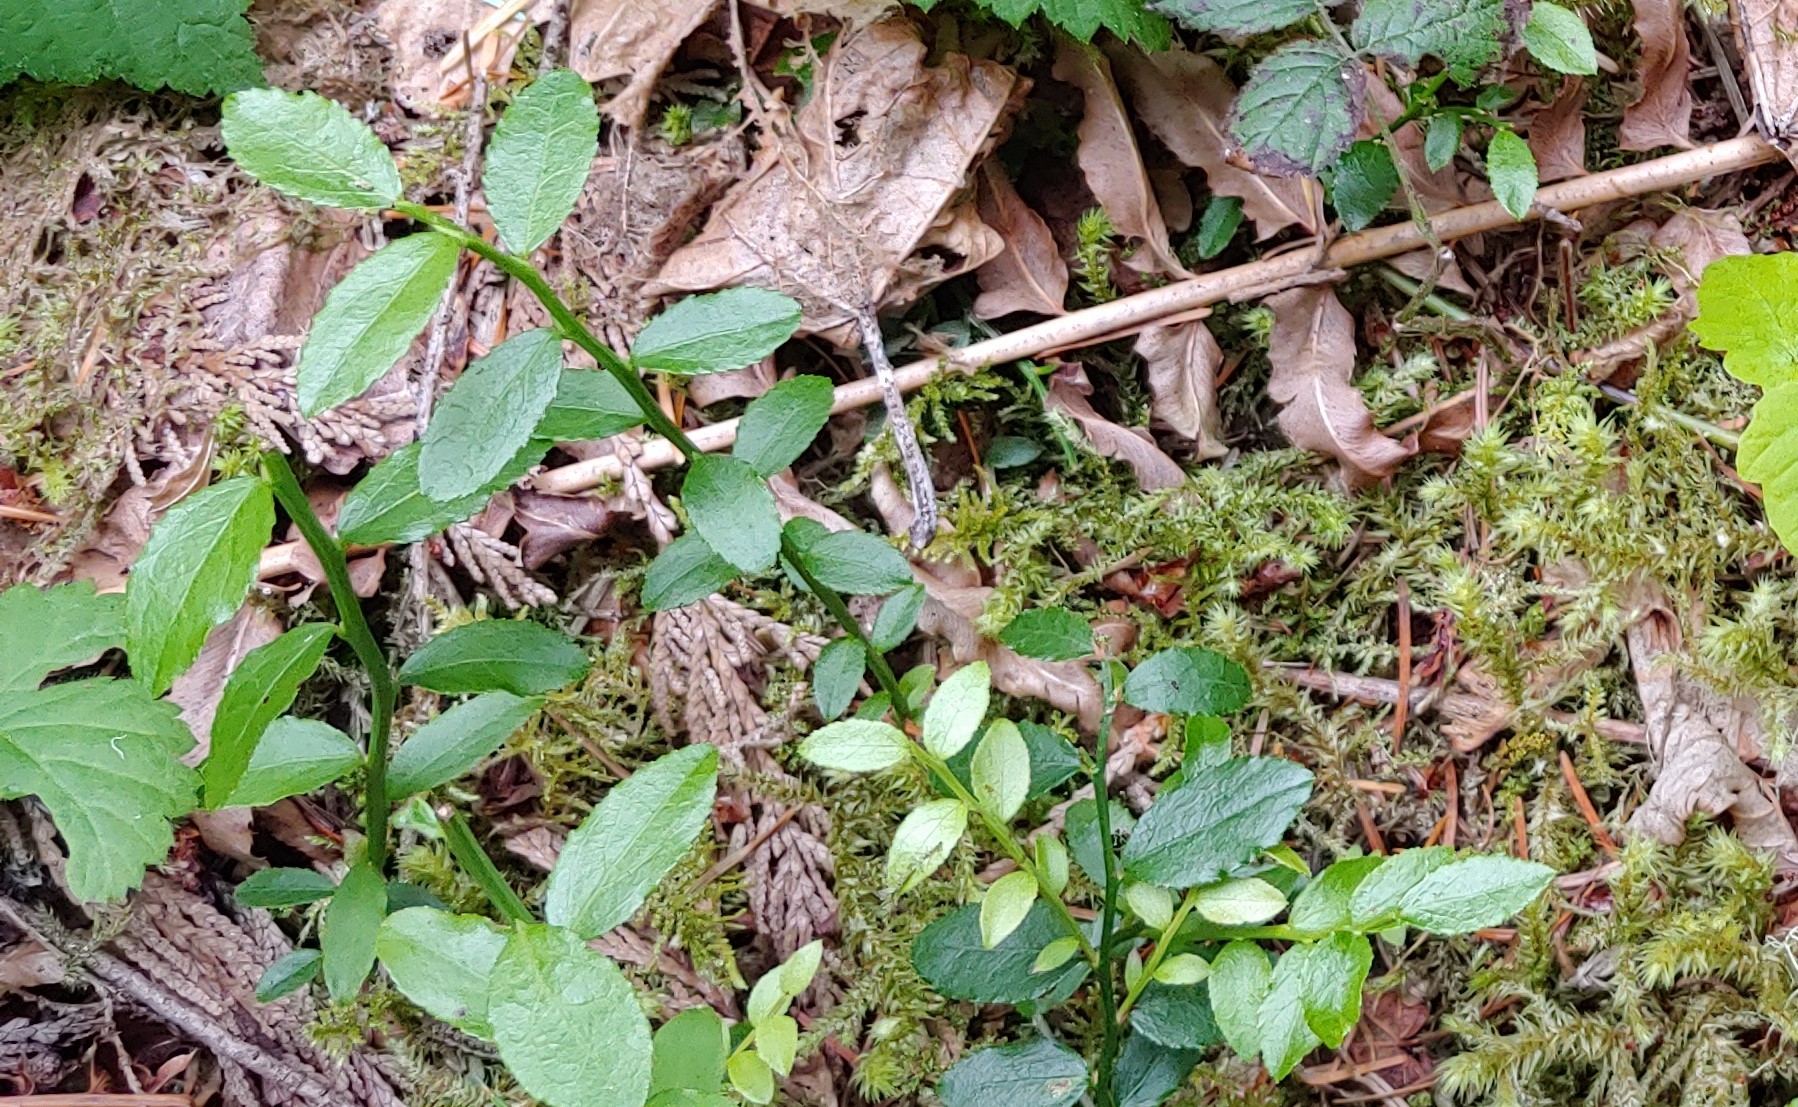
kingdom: Plantae
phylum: Tracheophyta
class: Magnoliopsida
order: Ericales
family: Ericaceae
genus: Vaccinium
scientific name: Vaccinium parvifolium
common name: Red-huckleberry
